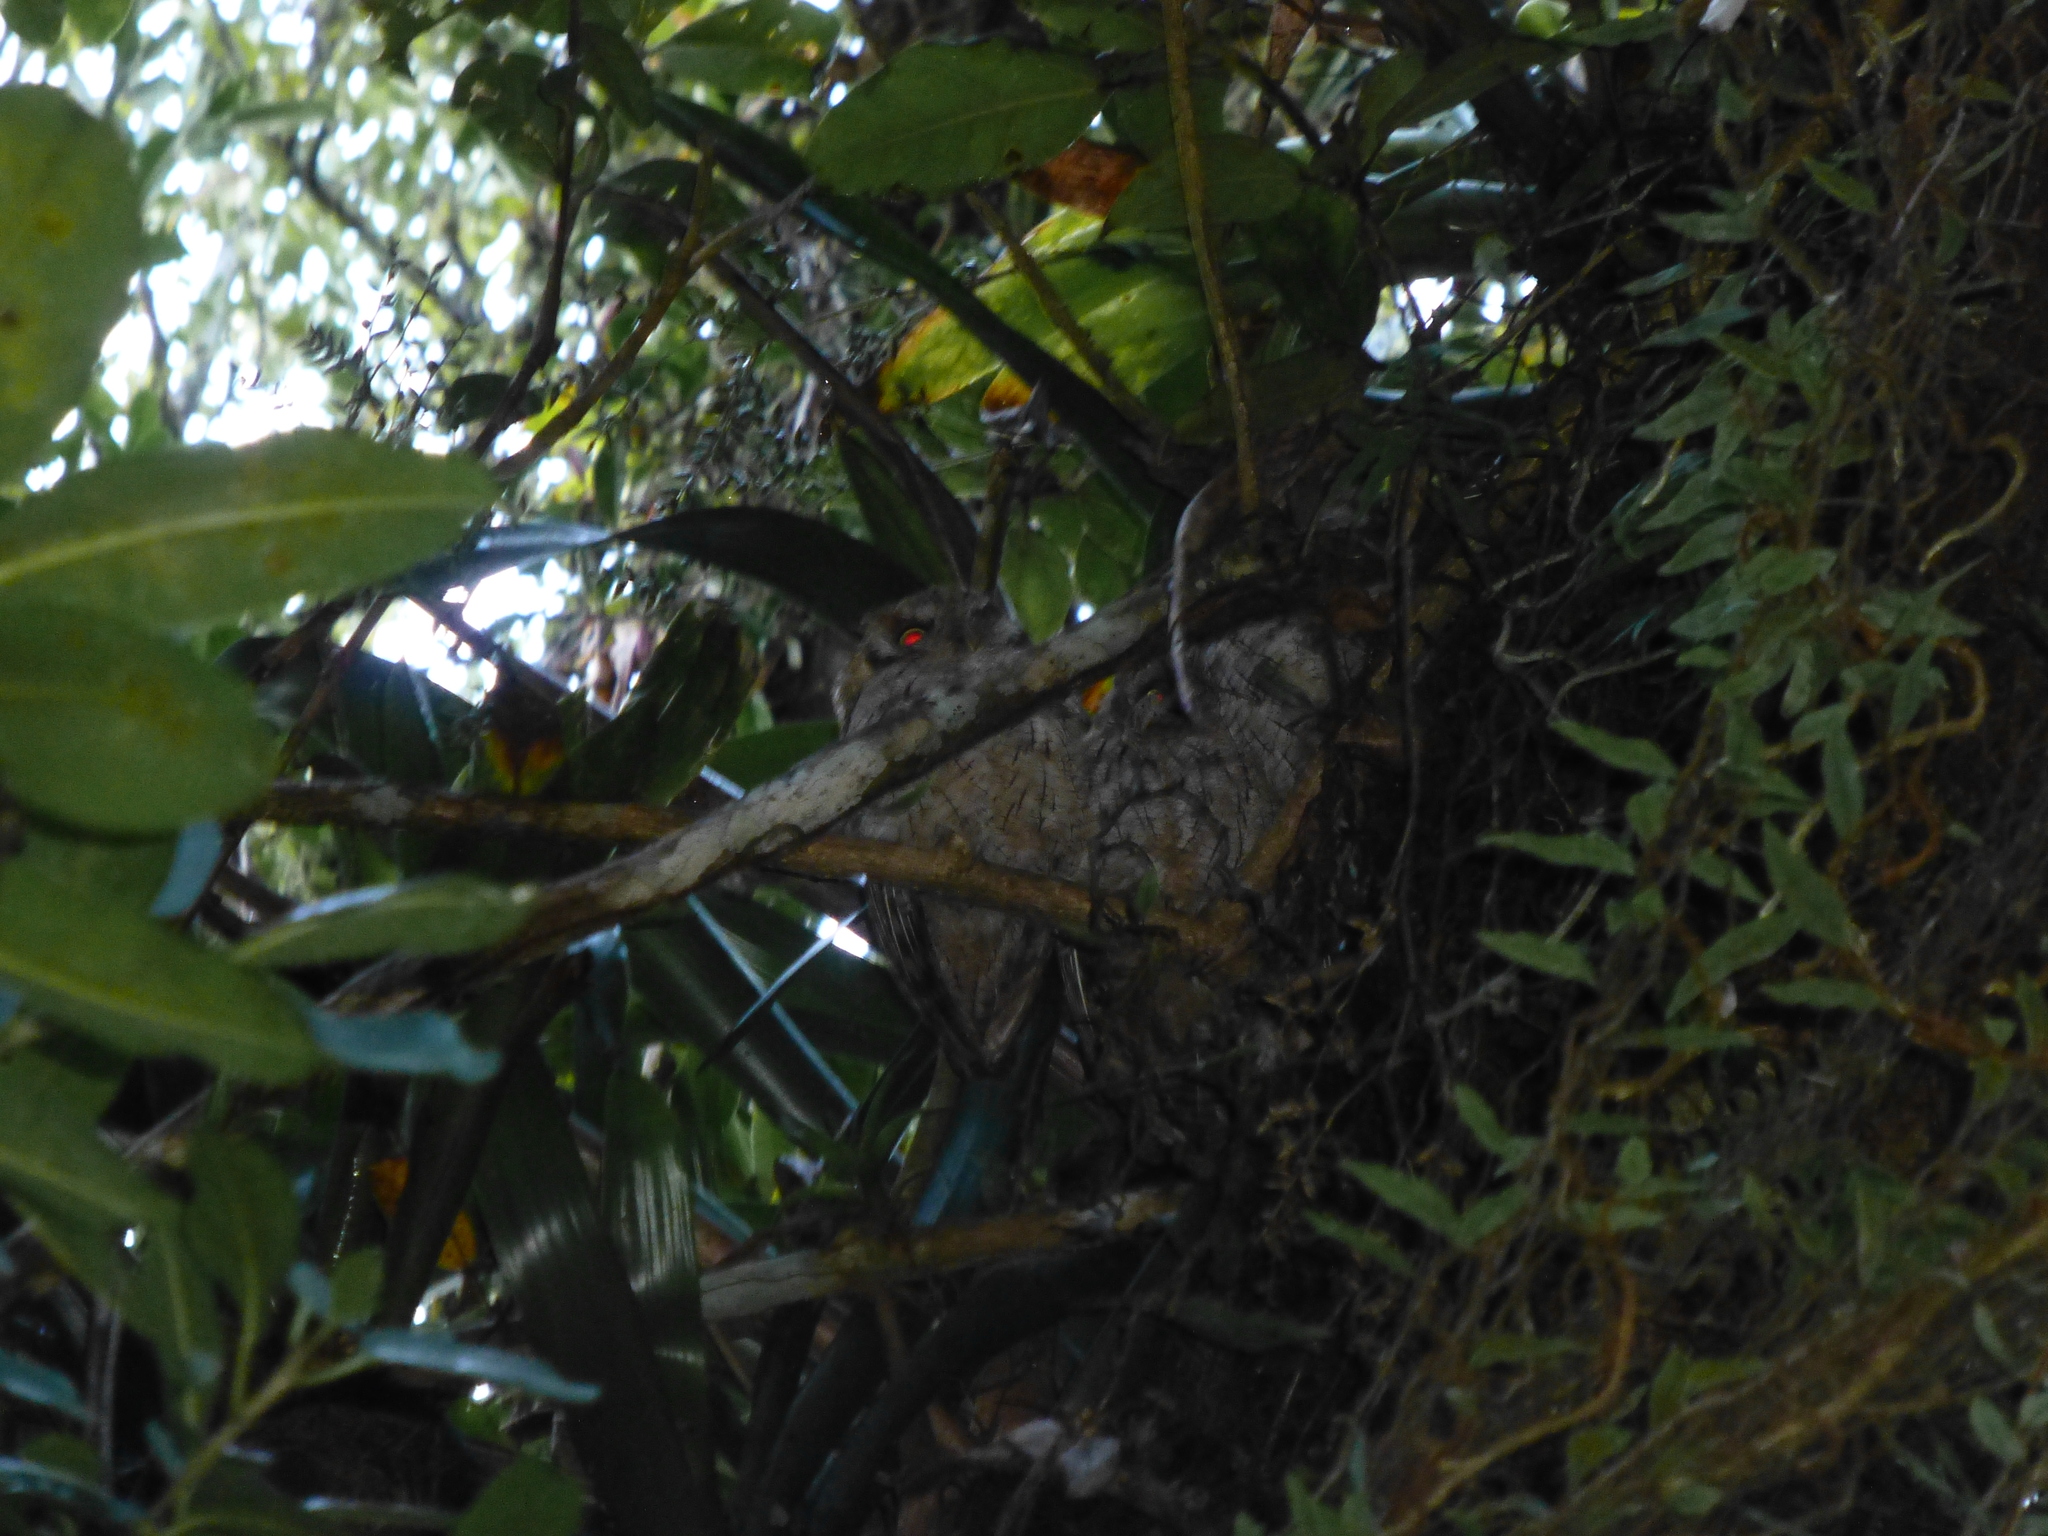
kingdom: Animalia
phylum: Chordata
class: Aves
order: Strigiformes
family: Strigidae
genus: Megascops
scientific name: Megascops choliba
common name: Tropical screech-owl
